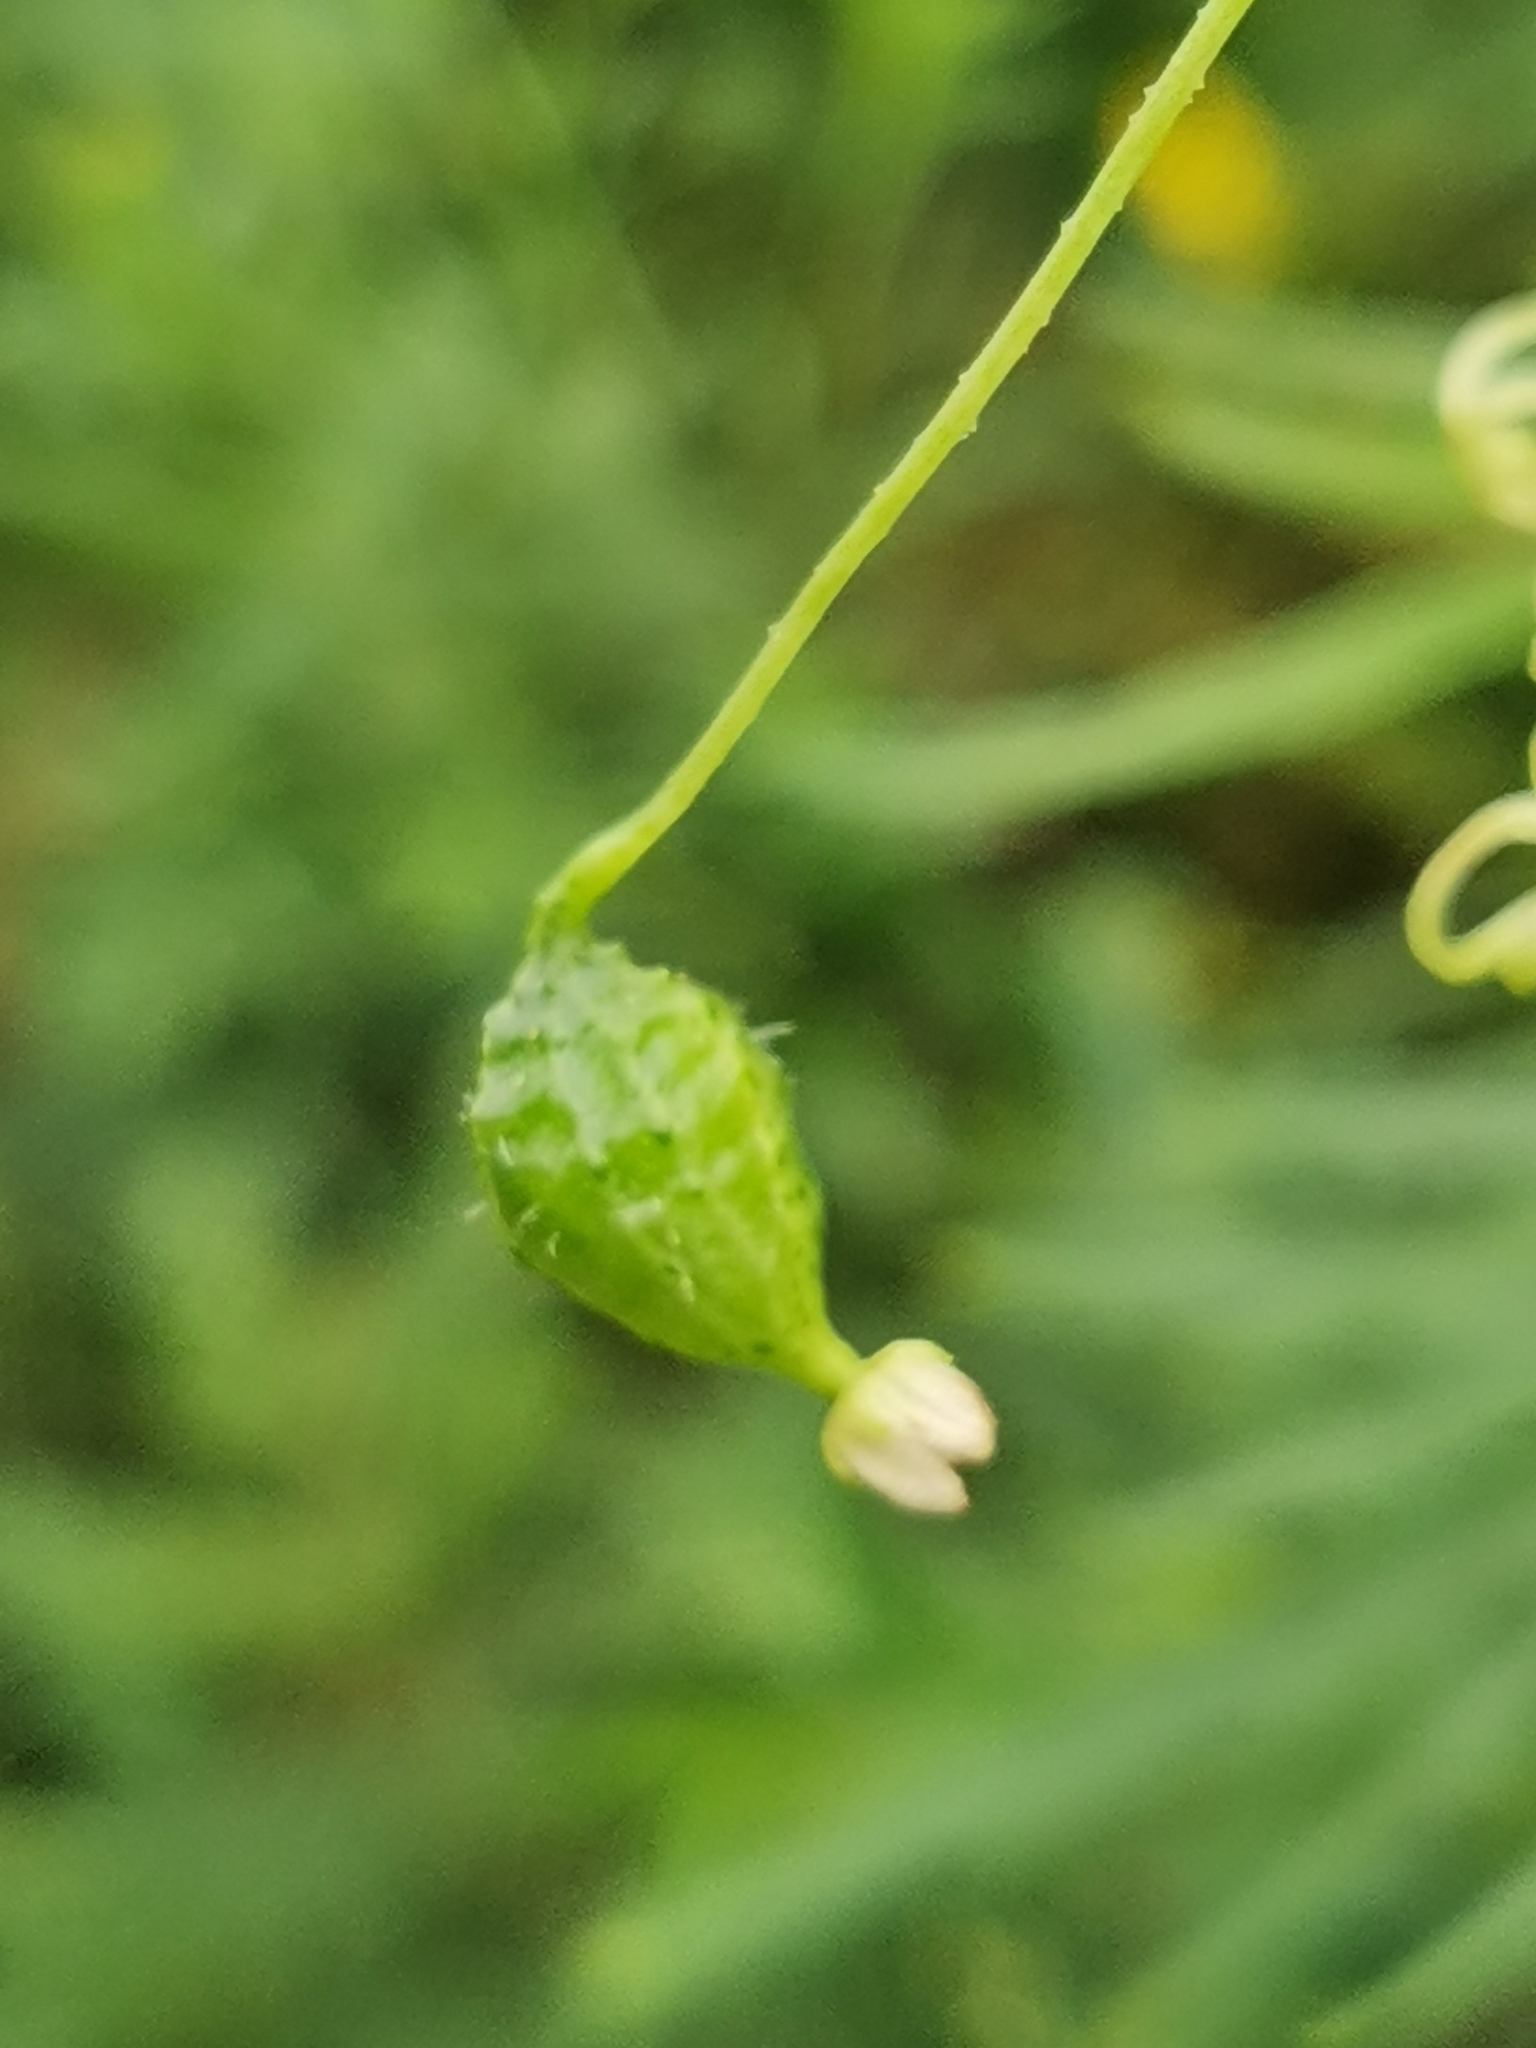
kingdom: Plantae
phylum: Tracheophyta
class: Magnoliopsida
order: Cucurbitales
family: Cucurbitaceae
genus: Schizopepon
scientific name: Schizopepon bryoniifolius
